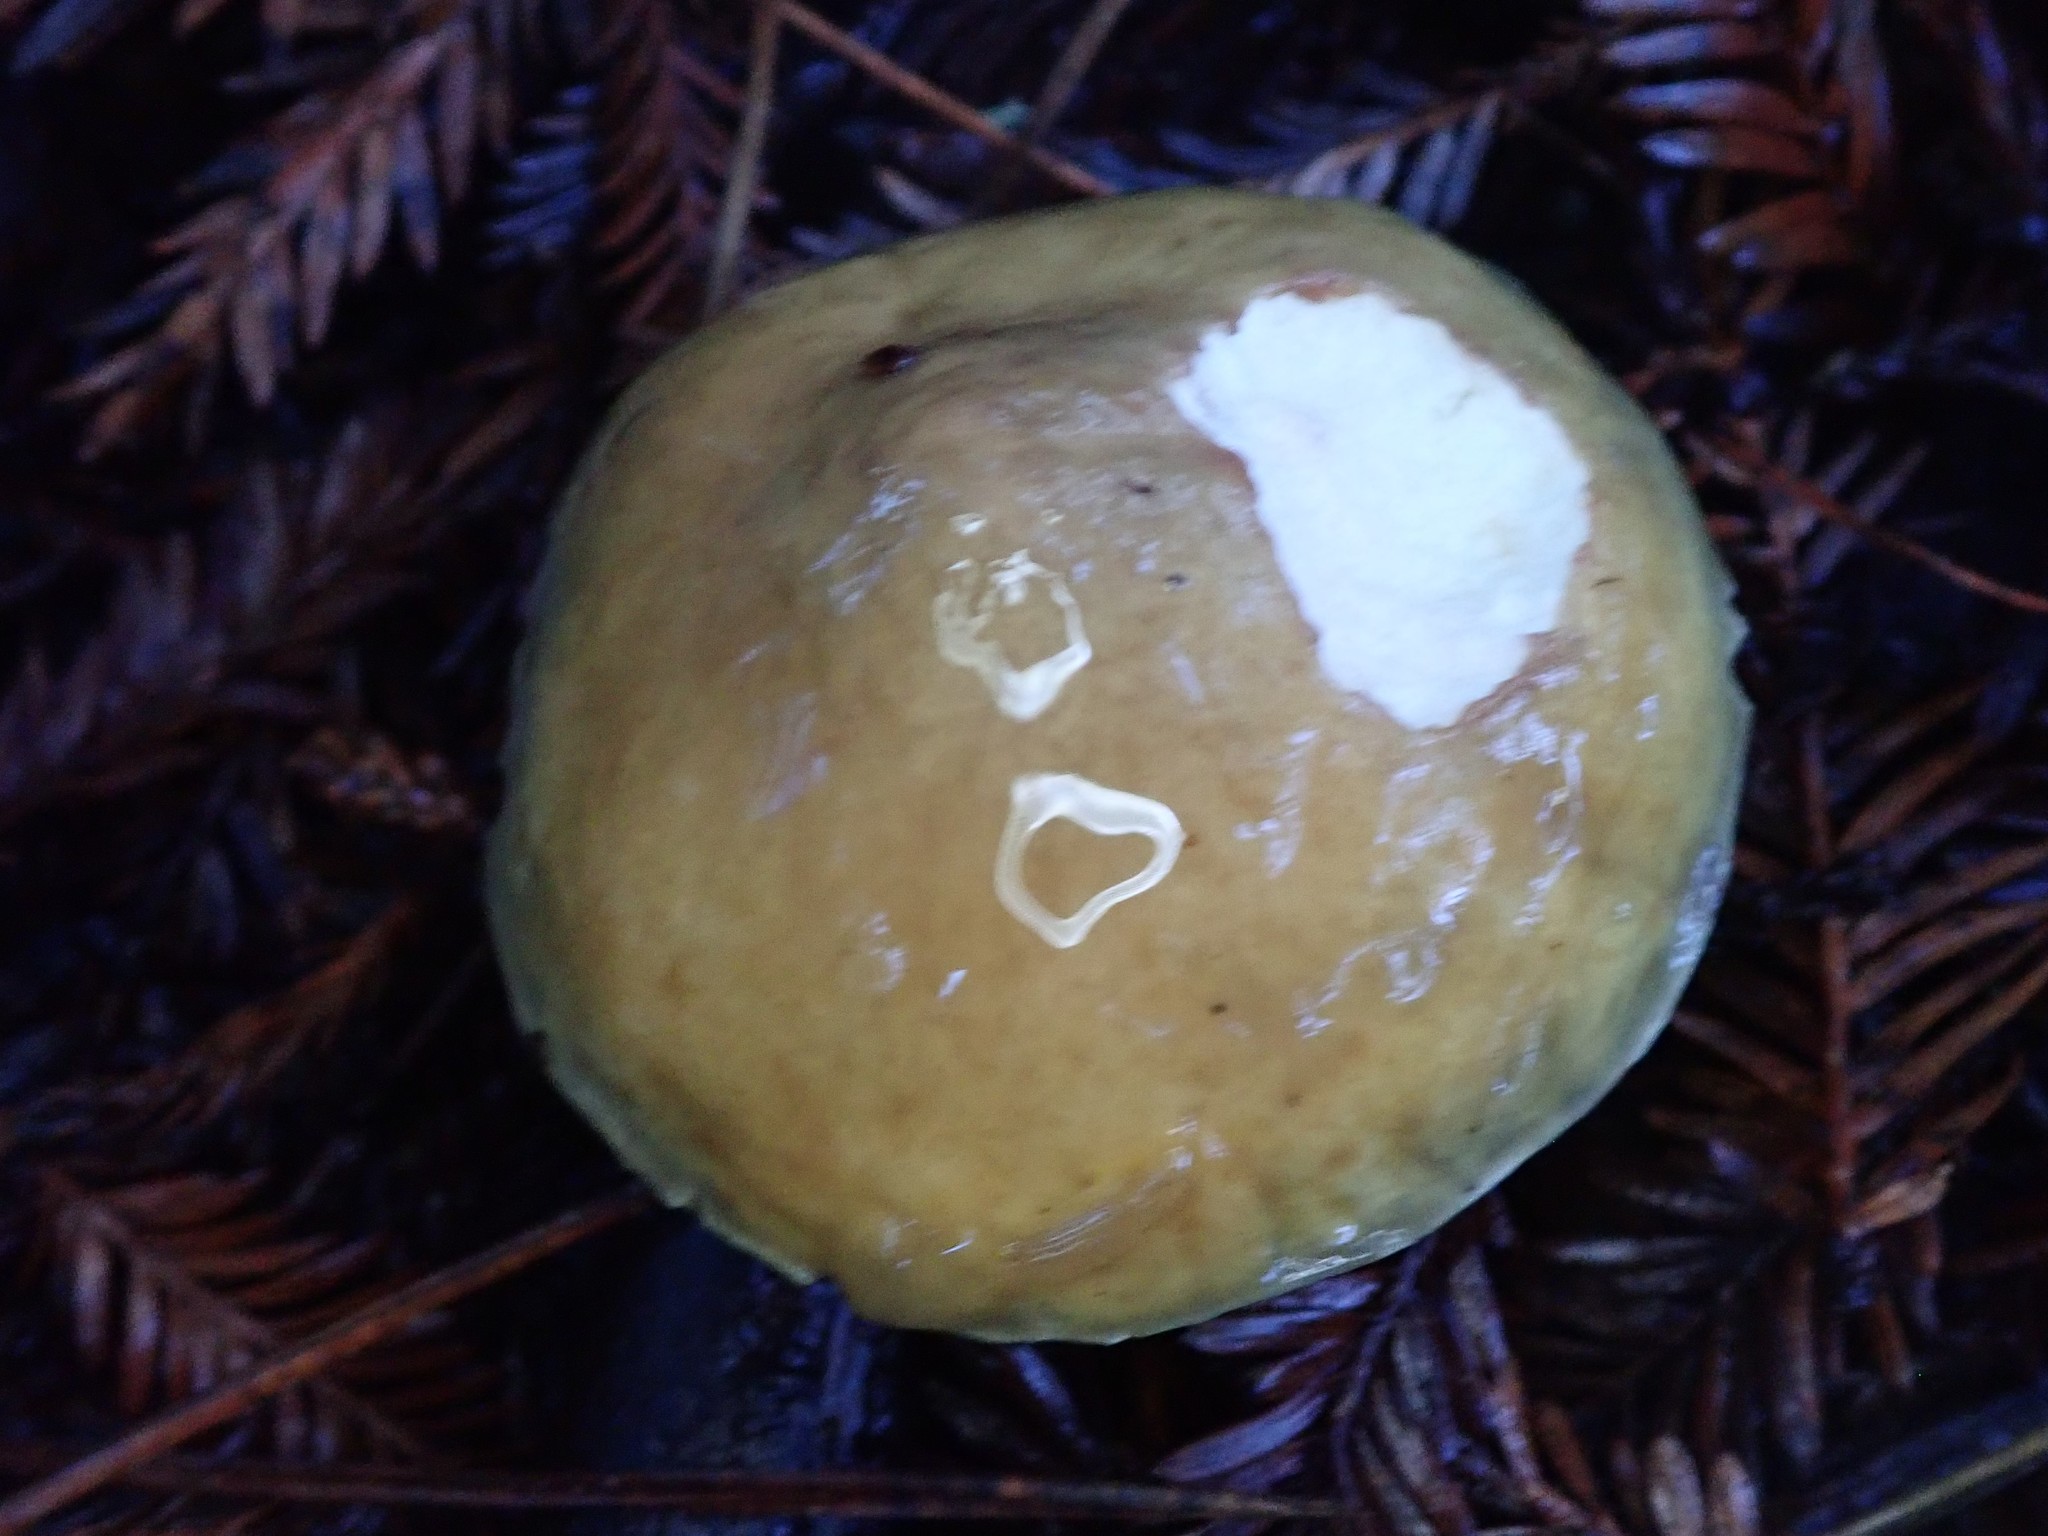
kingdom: Fungi
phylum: Basidiomycota
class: Agaricomycetes
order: Boletales
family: Suillaceae
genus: Suillus
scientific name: Suillus pungens
